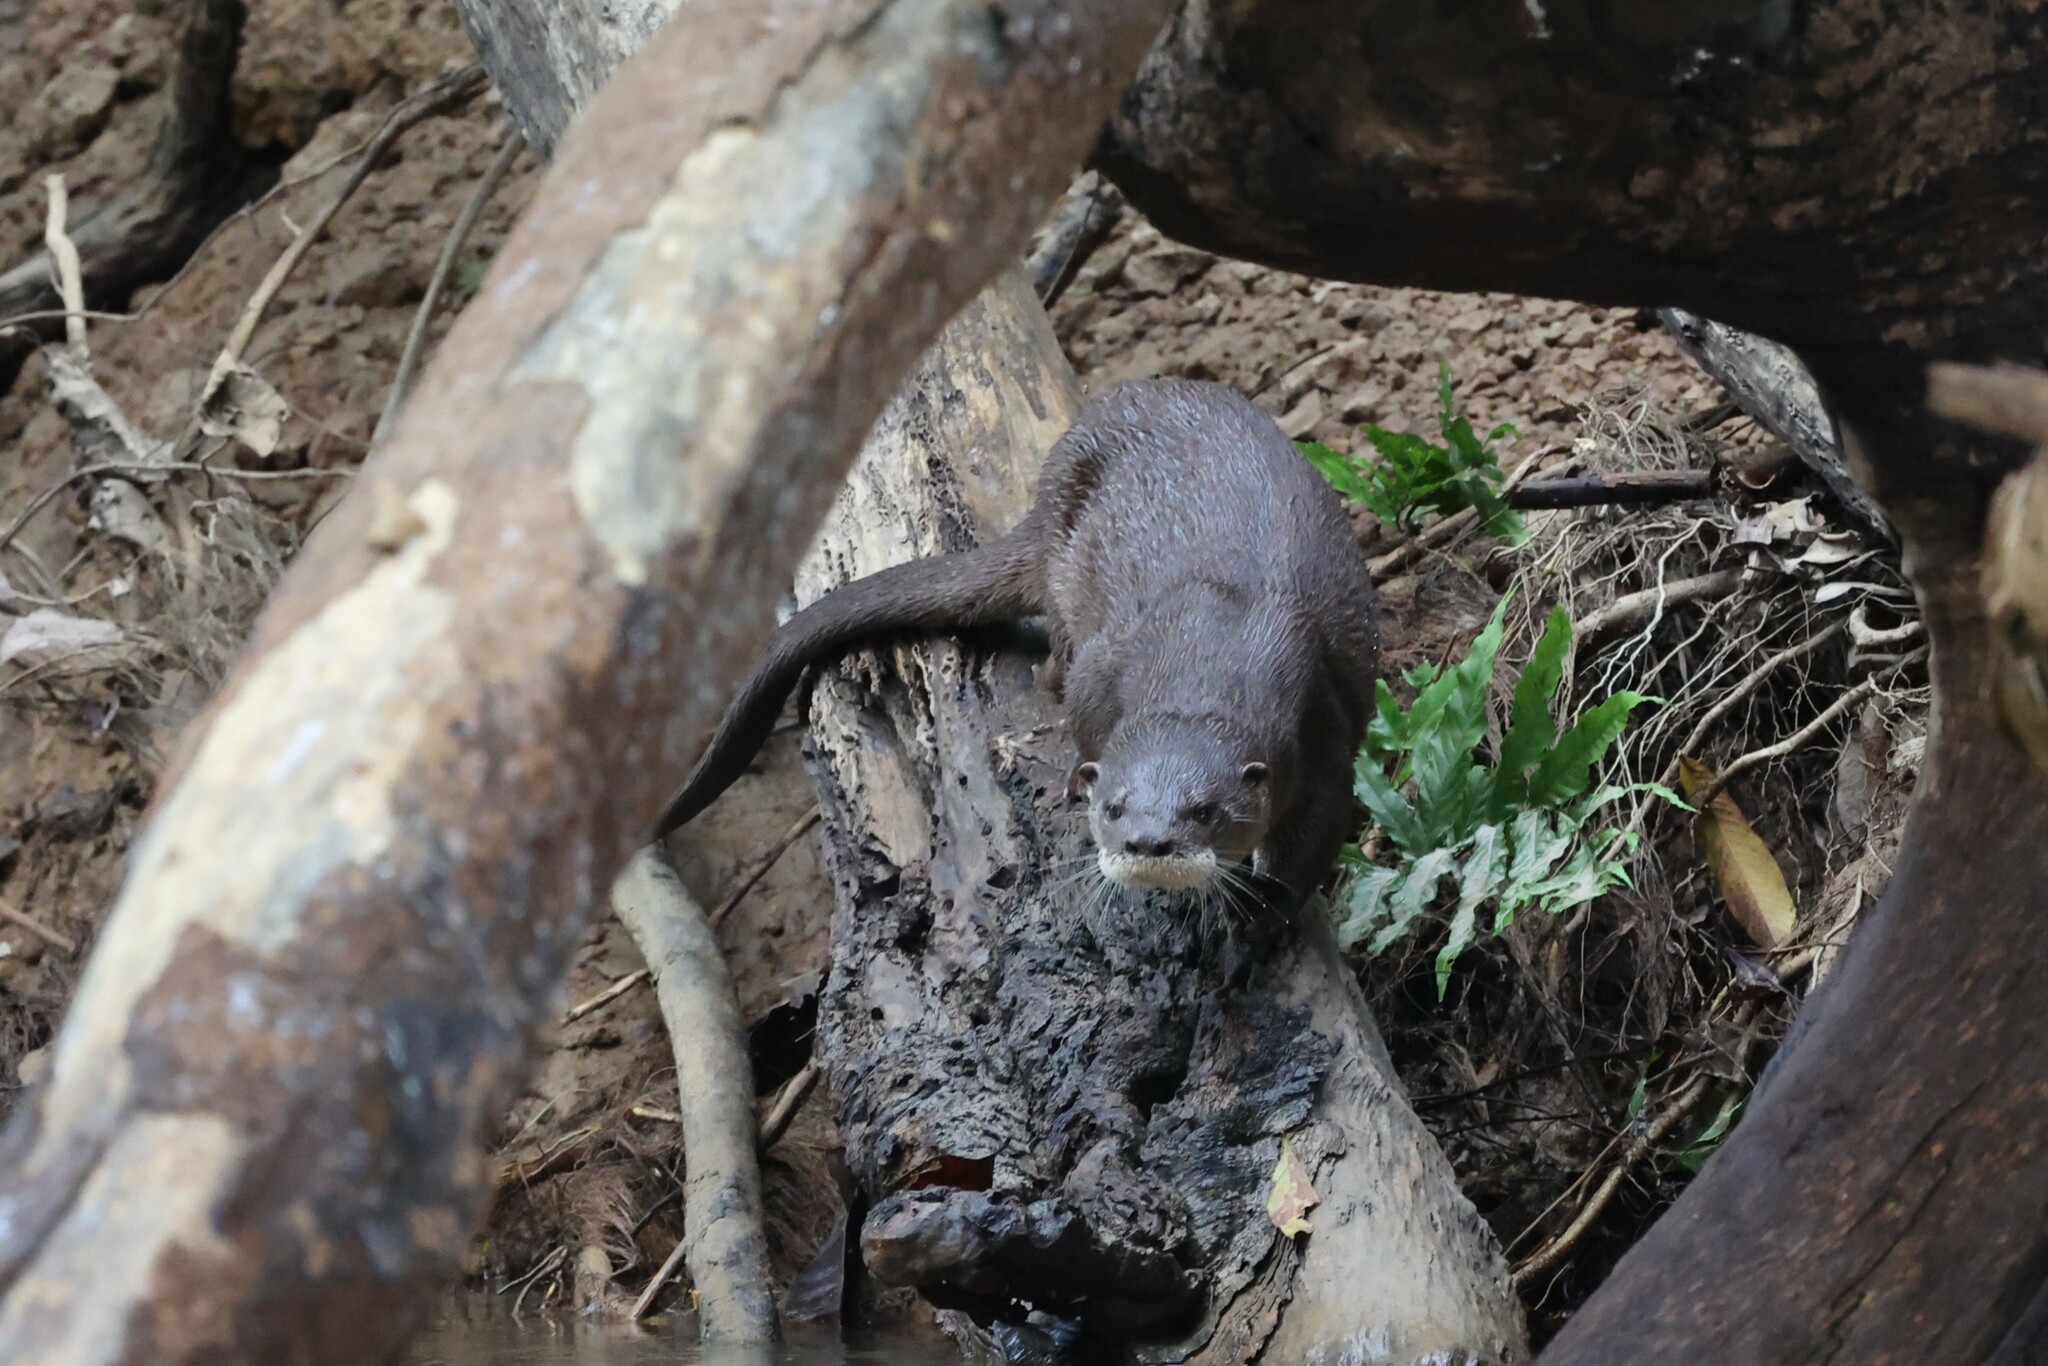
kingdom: Animalia
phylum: Chordata
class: Mammalia
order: Carnivora
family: Mustelidae
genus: Lontra
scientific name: Lontra longicaudis
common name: Neotropical otter
